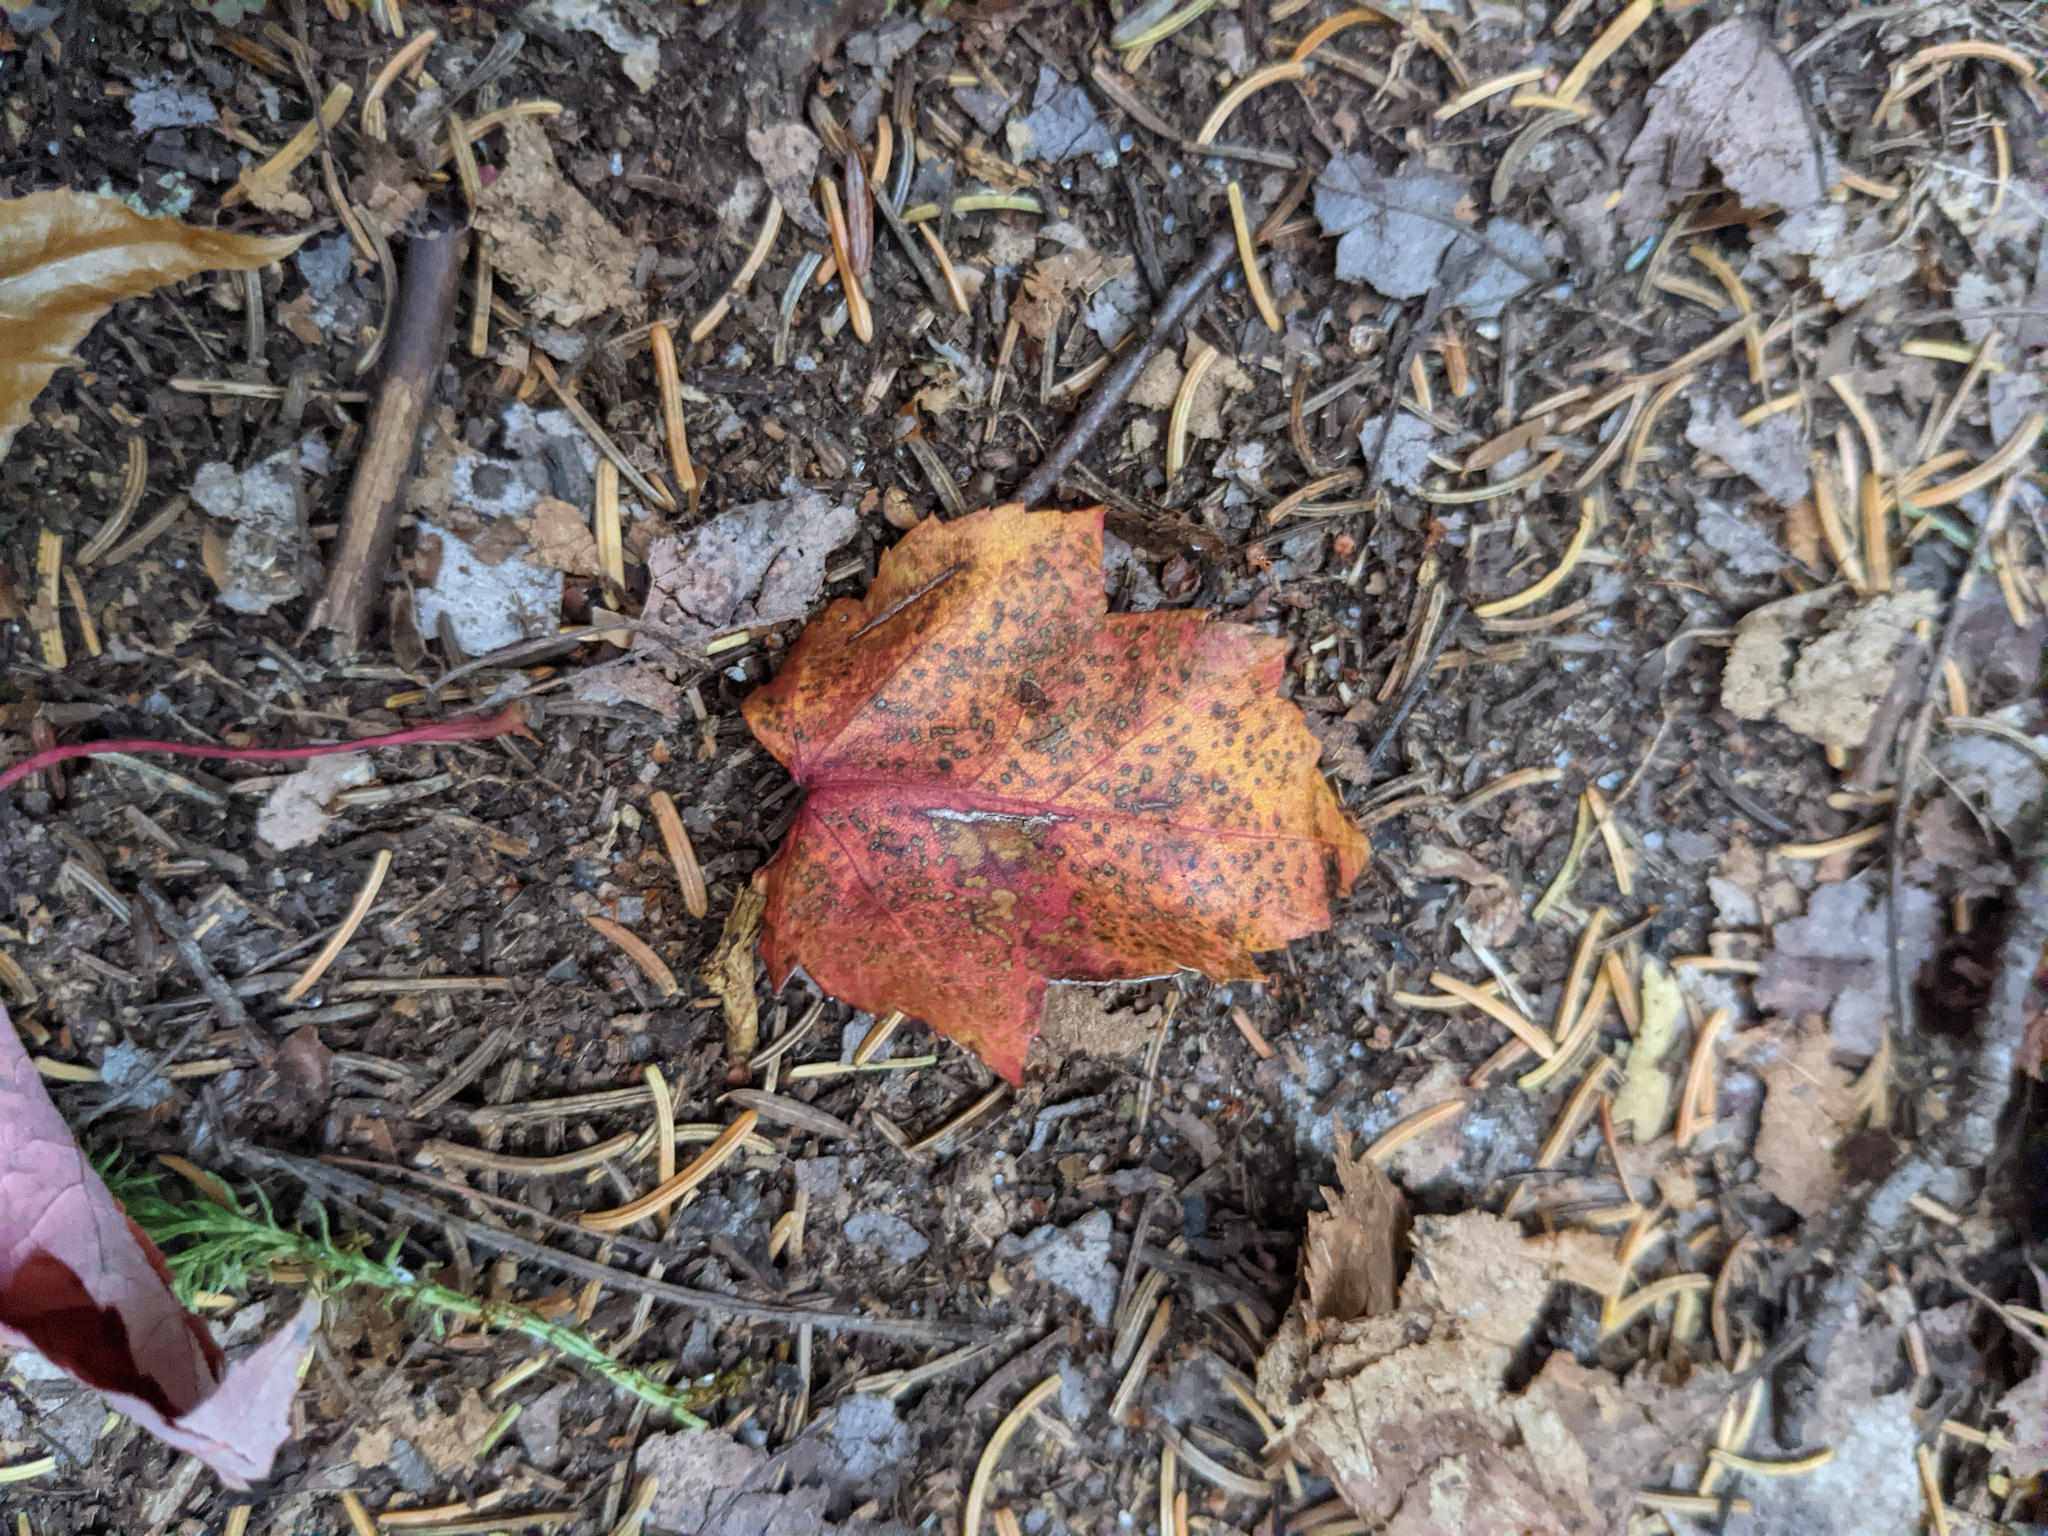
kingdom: Plantae
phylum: Tracheophyta
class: Magnoliopsida
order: Sapindales
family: Sapindaceae
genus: Acer
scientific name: Acer rubrum
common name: Red maple
